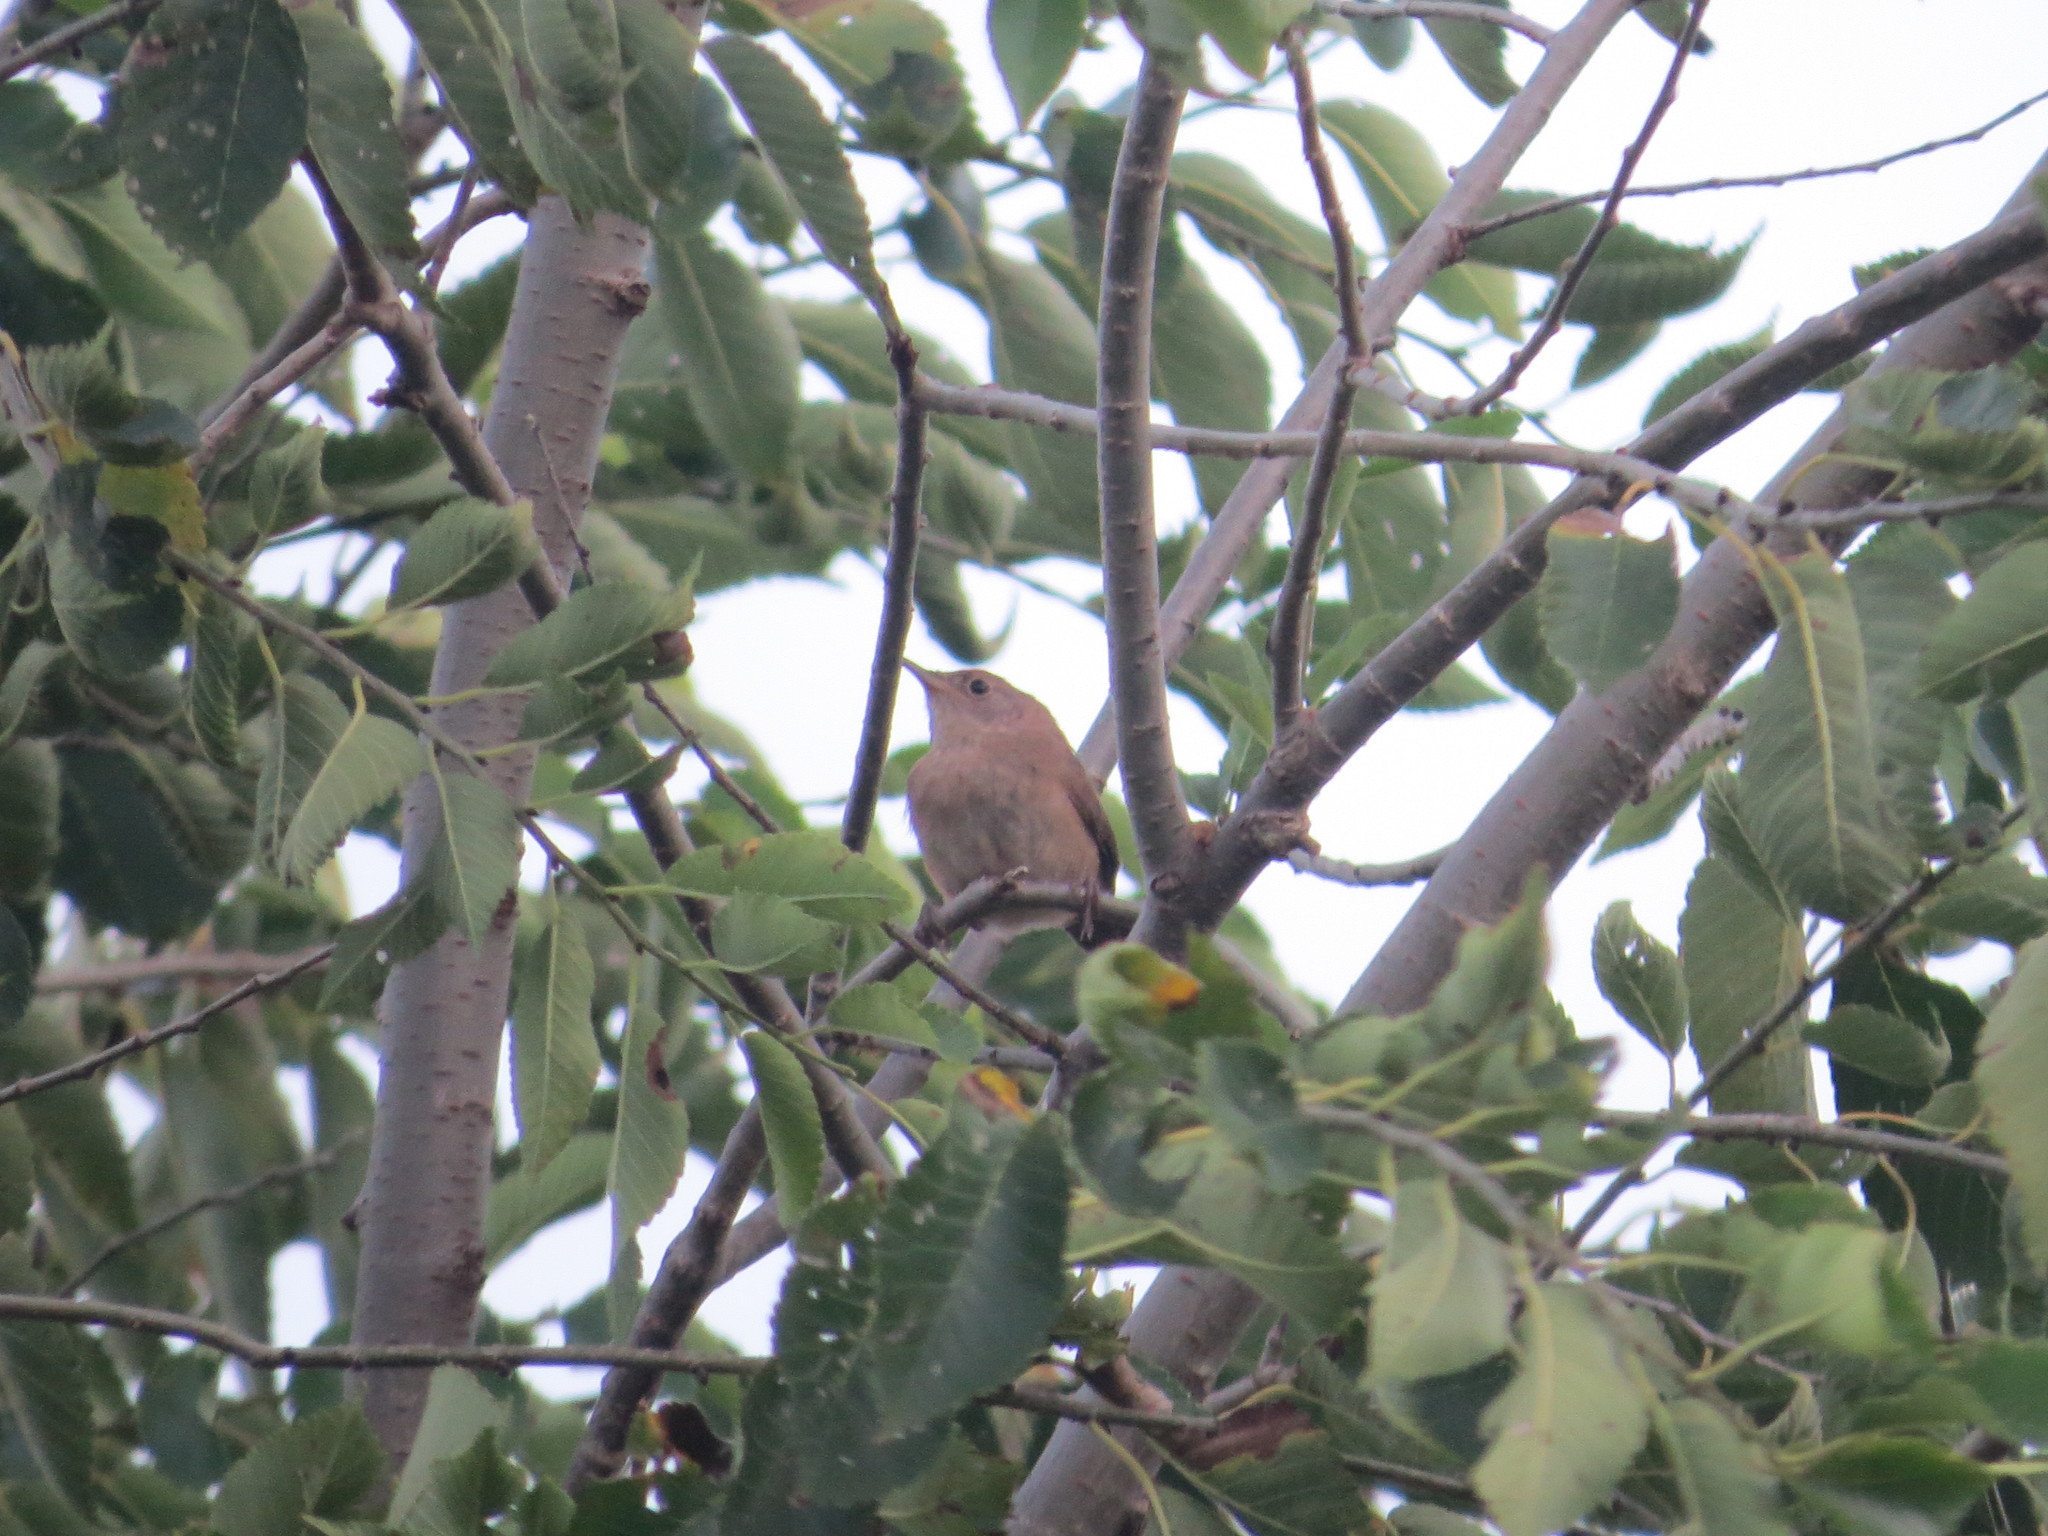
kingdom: Animalia
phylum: Chordata
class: Aves
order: Passeriformes
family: Troglodytidae
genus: Troglodytes
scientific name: Troglodytes aedon
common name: House wren
